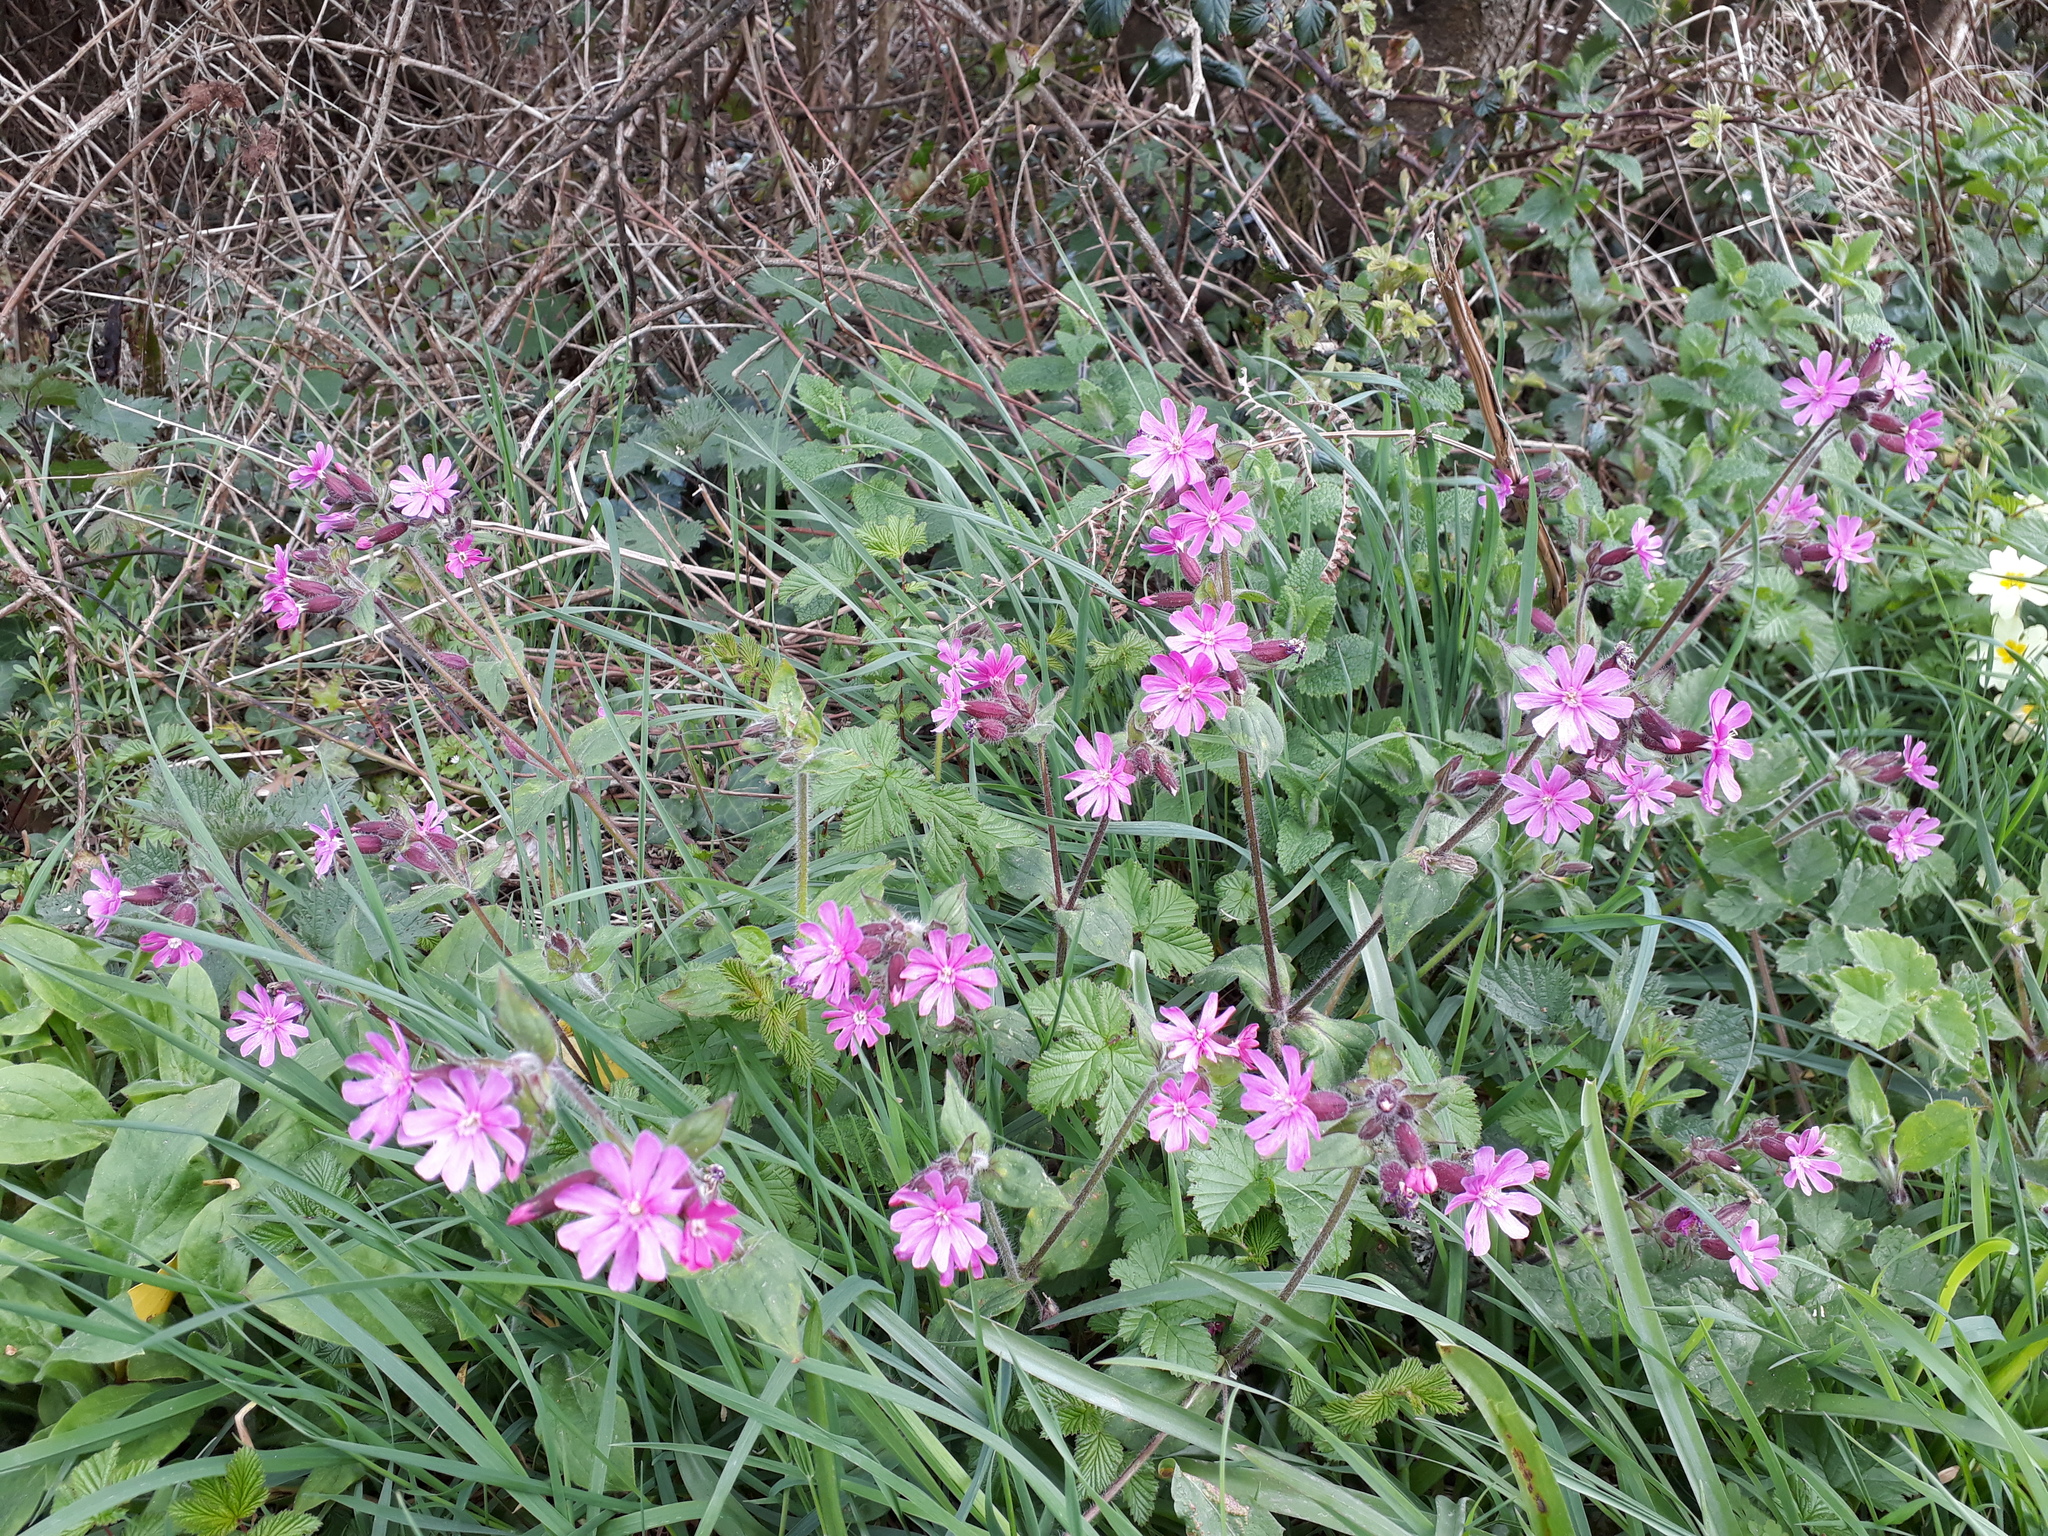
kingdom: Plantae
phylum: Tracheophyta
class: Magnoliopsida
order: Caryophyllales
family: Caryophyllaceae
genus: Silene
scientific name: Silene dioica
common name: Red campion
